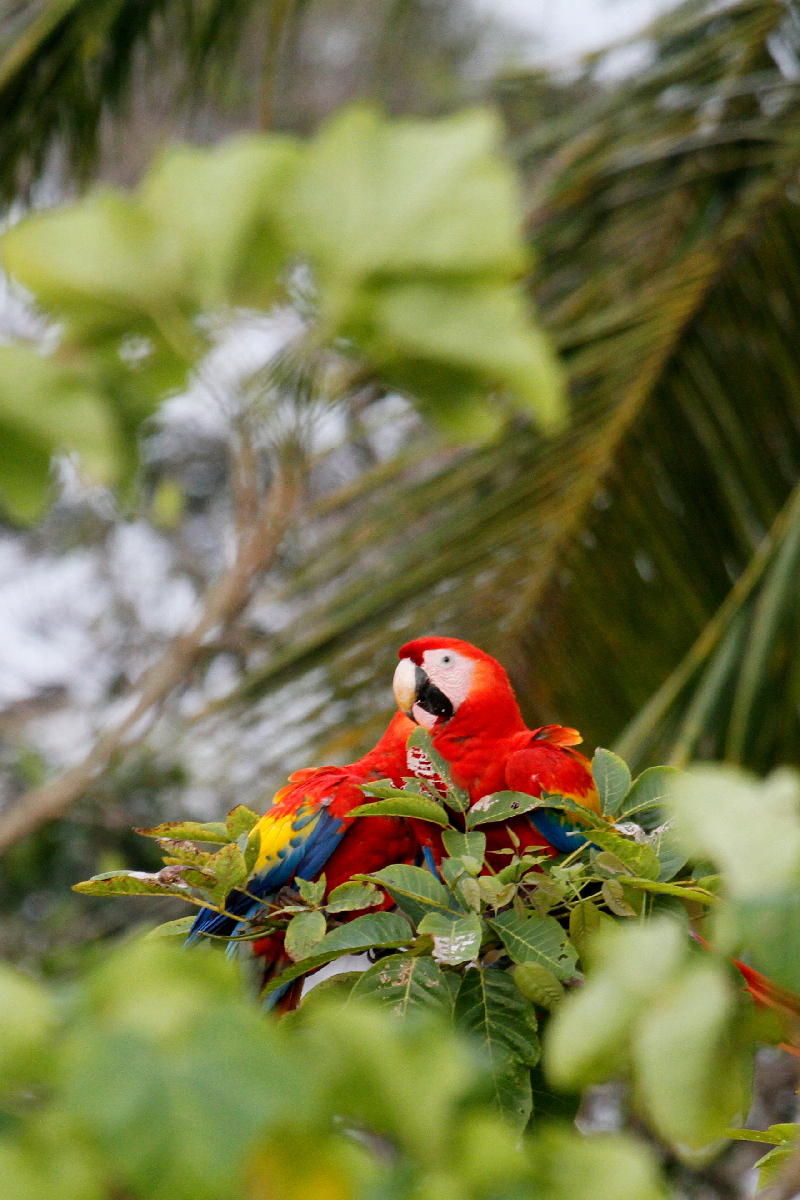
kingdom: Animalia
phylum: Chordata
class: Aves
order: Psittaciformes
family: Psittacidae
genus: Ara
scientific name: Ara macao
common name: Scarlet macaw
